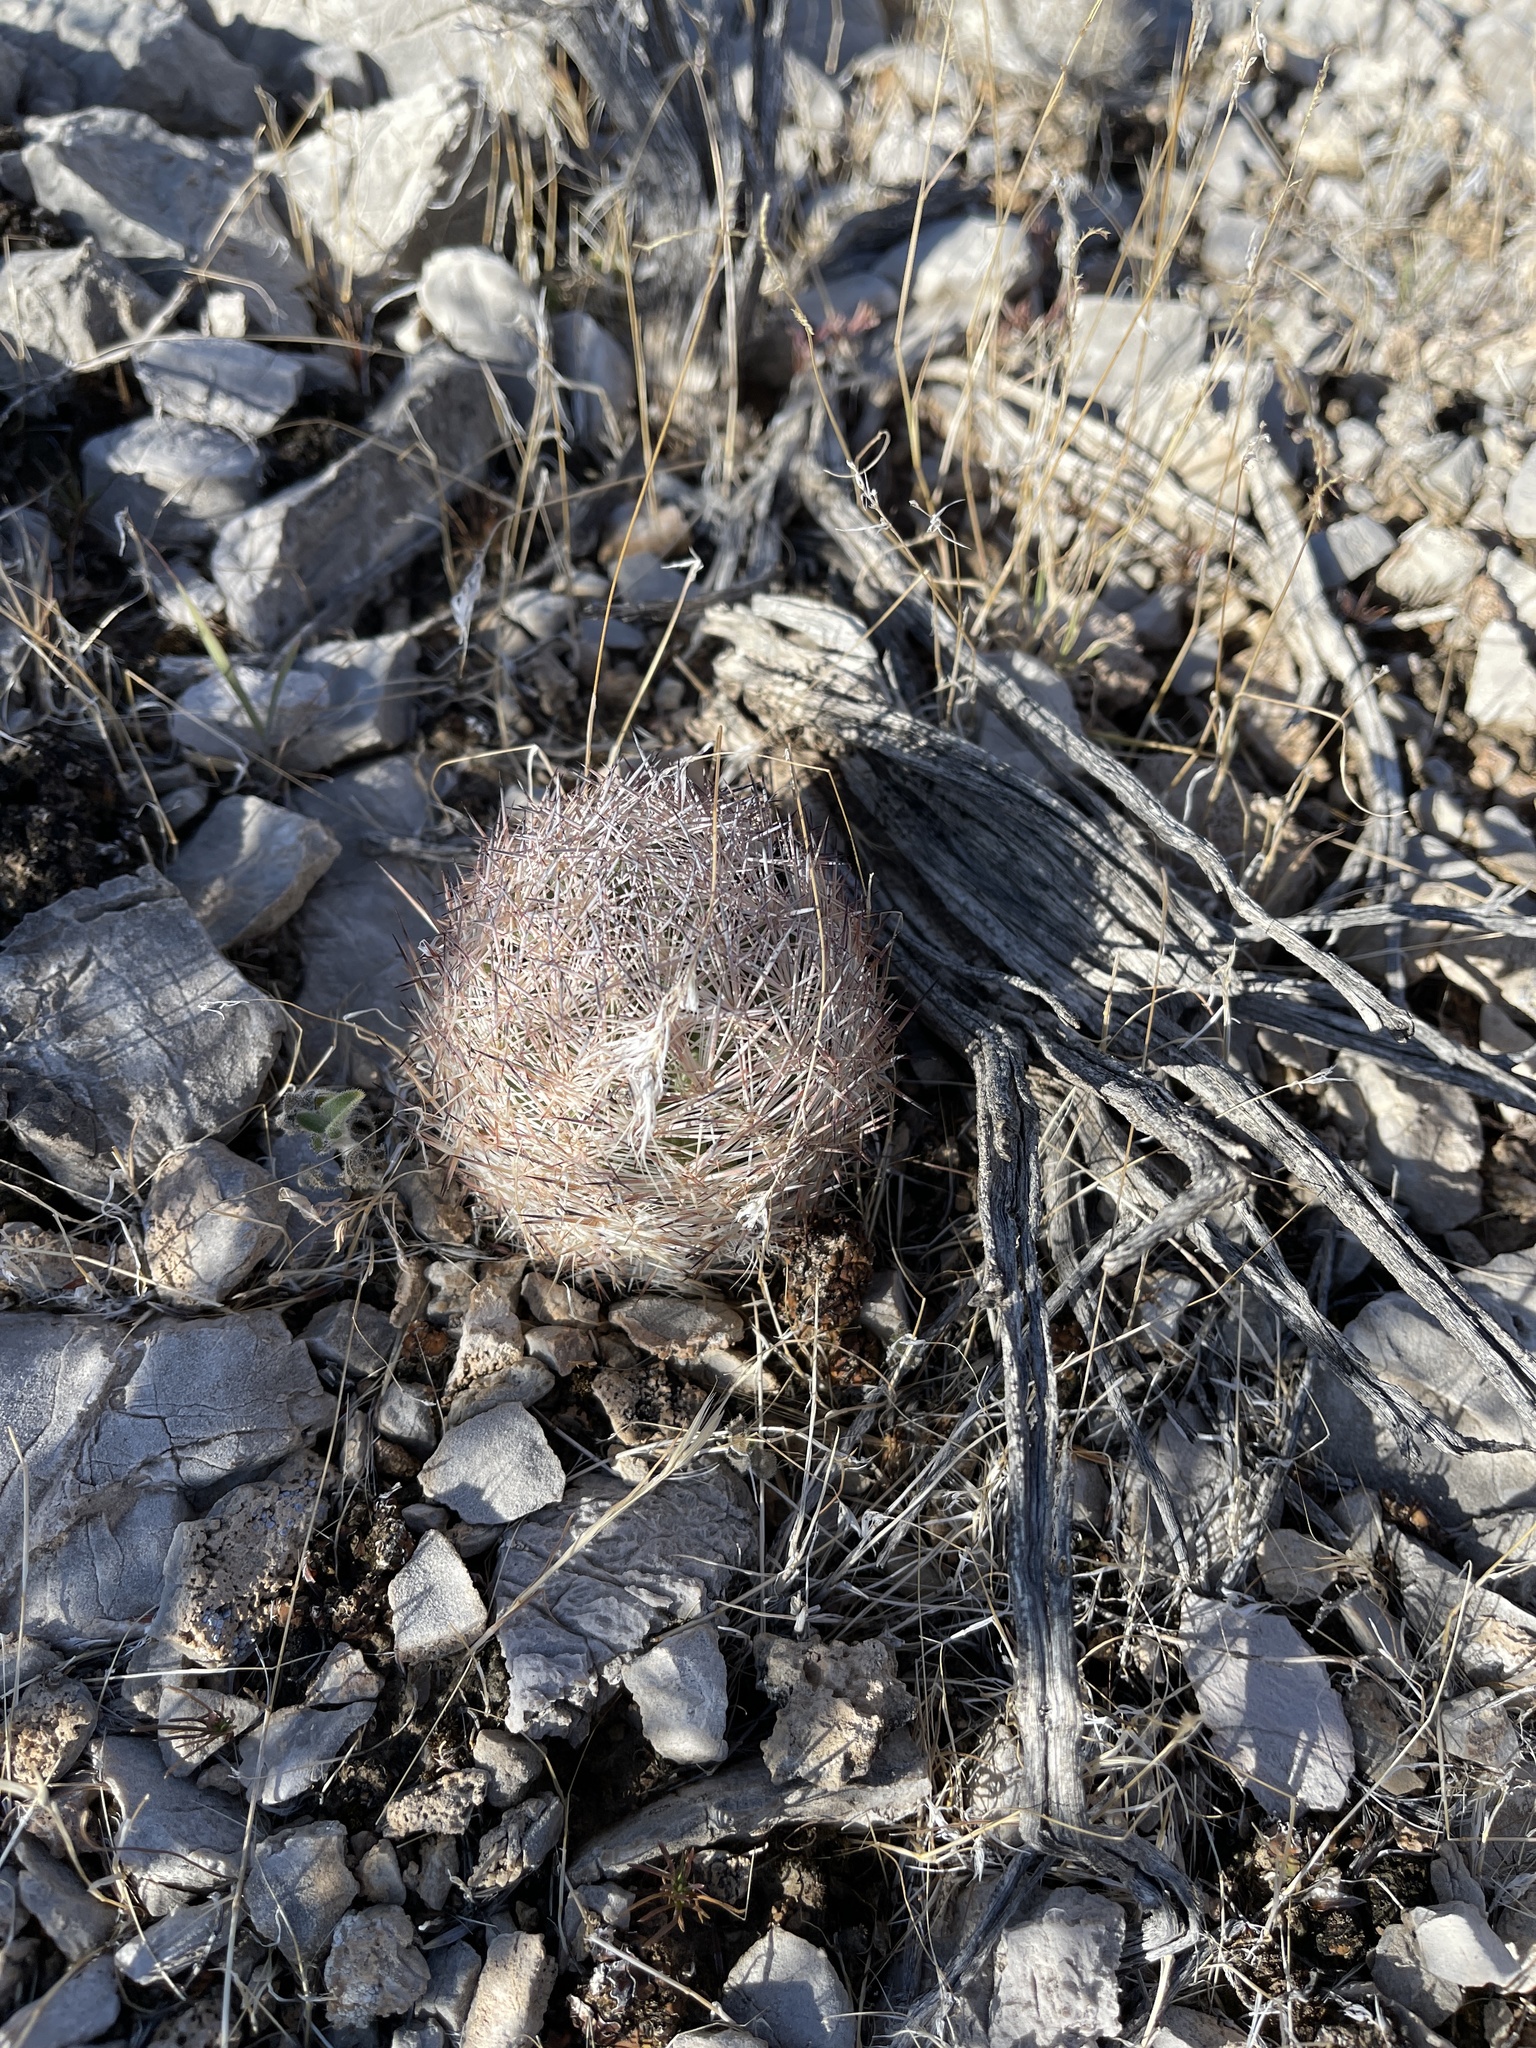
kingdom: Plantae
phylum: Tracheophyta
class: Magnoliopsida
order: Caryophyllales
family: Cactaceae
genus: Pelecyphora
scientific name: Pelecyphora dasyacantha
